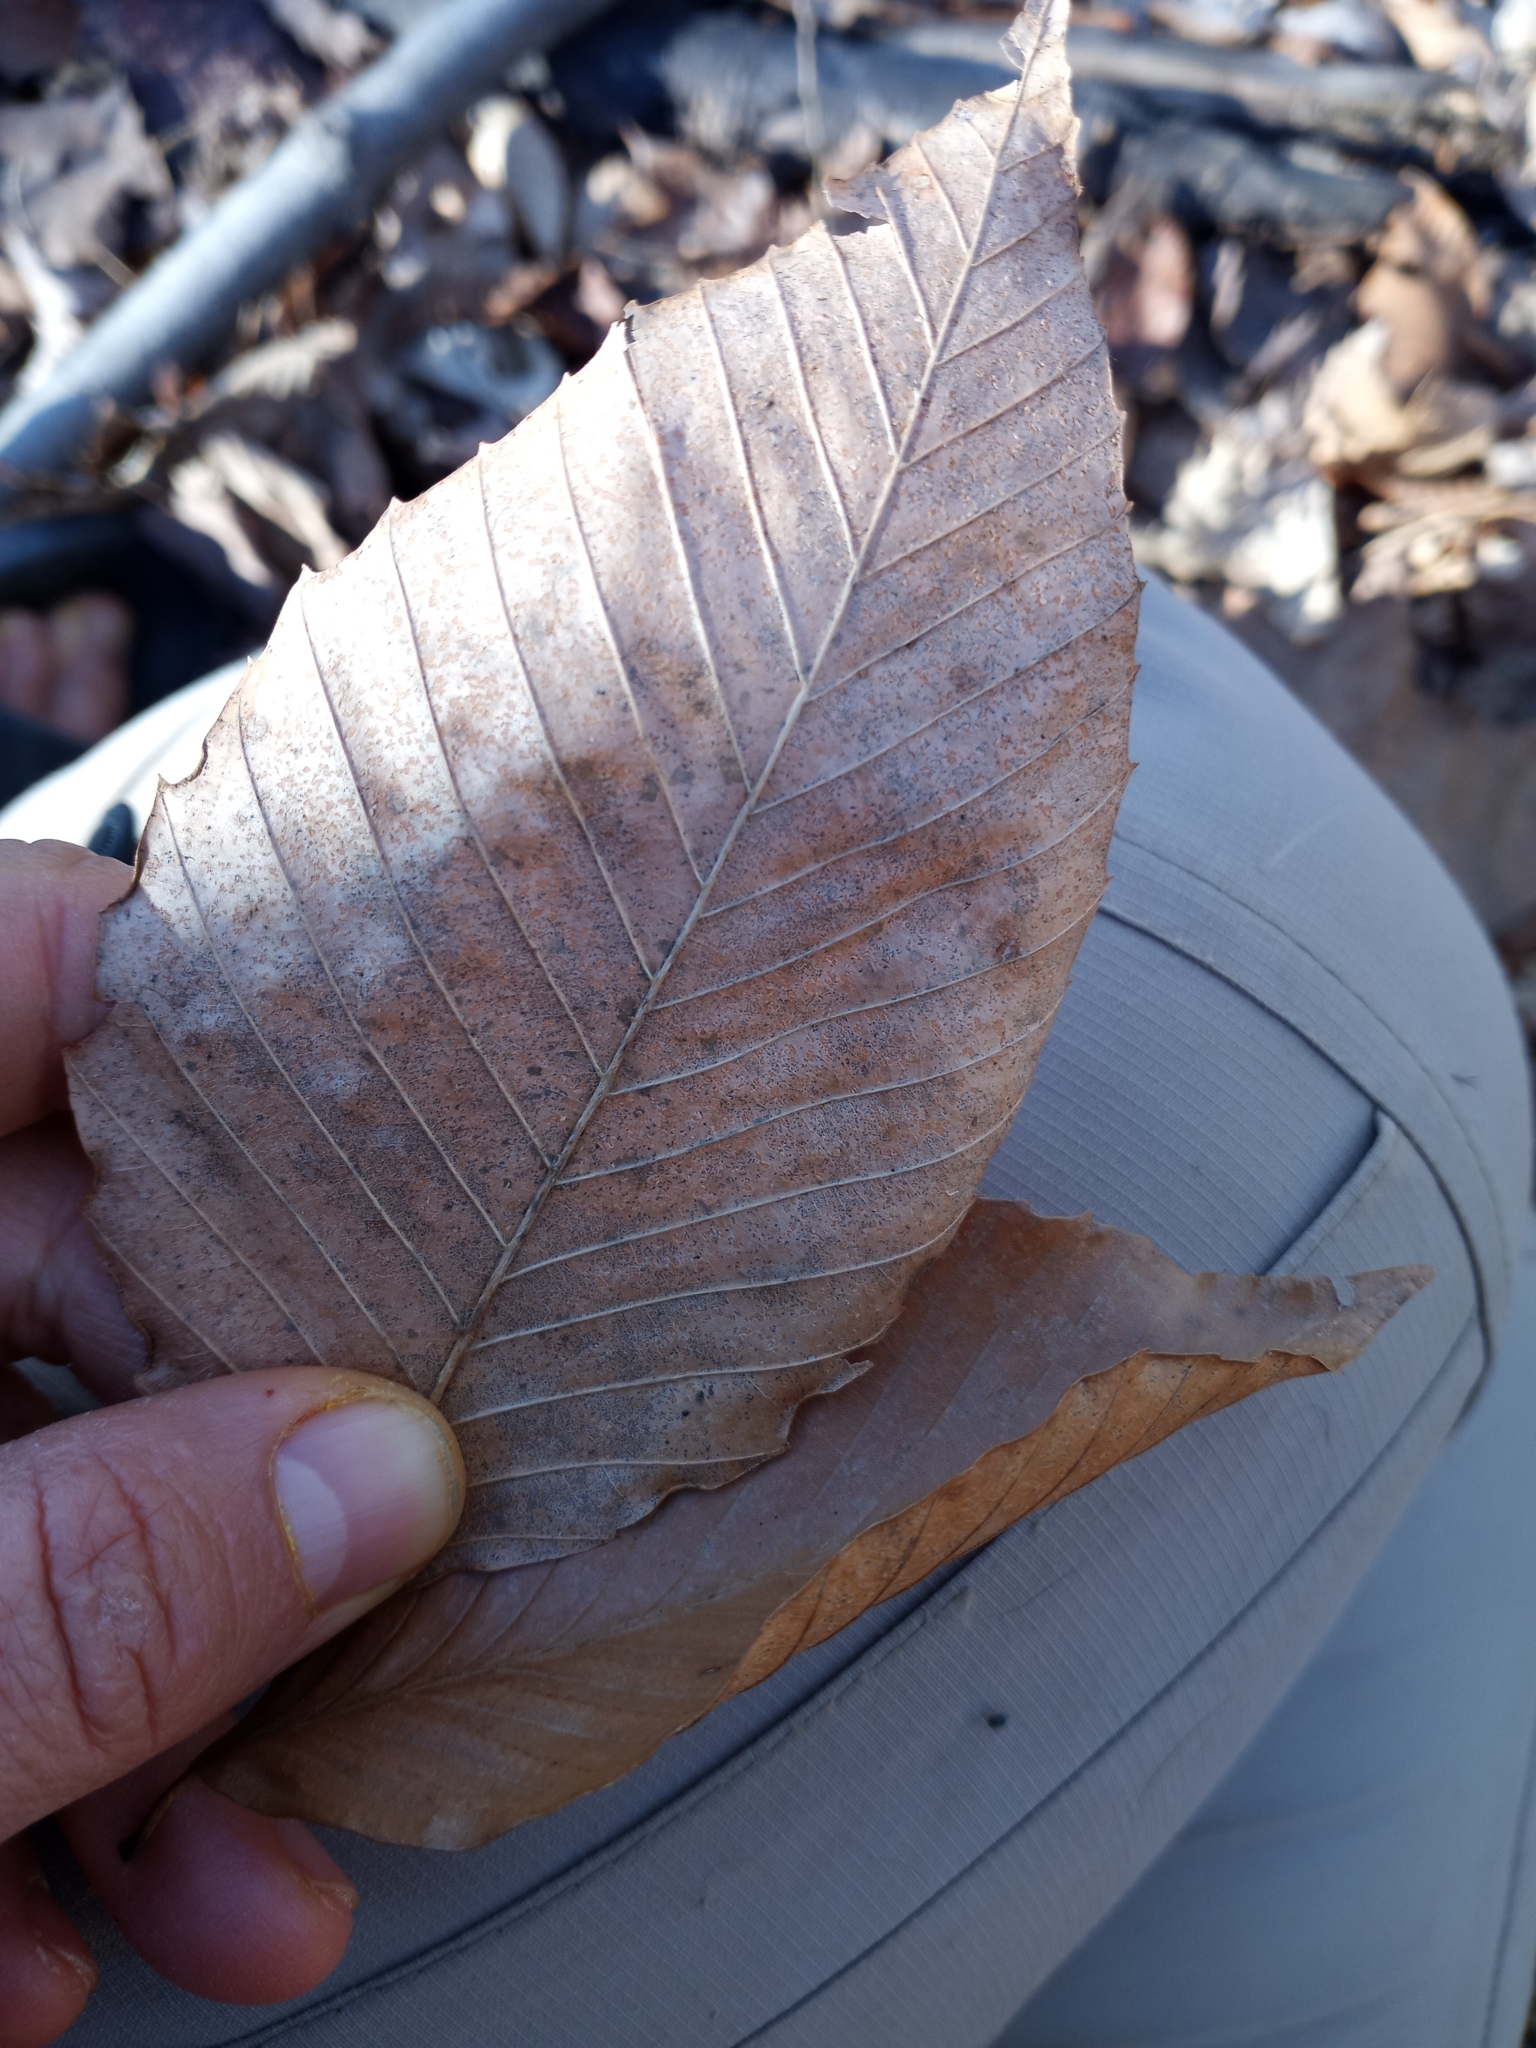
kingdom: Plantae
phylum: Tracheophyta
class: Magnoliopsida
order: Fagales
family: Fagaceae
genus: Fagus
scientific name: Fagus grandifolia
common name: American beech
